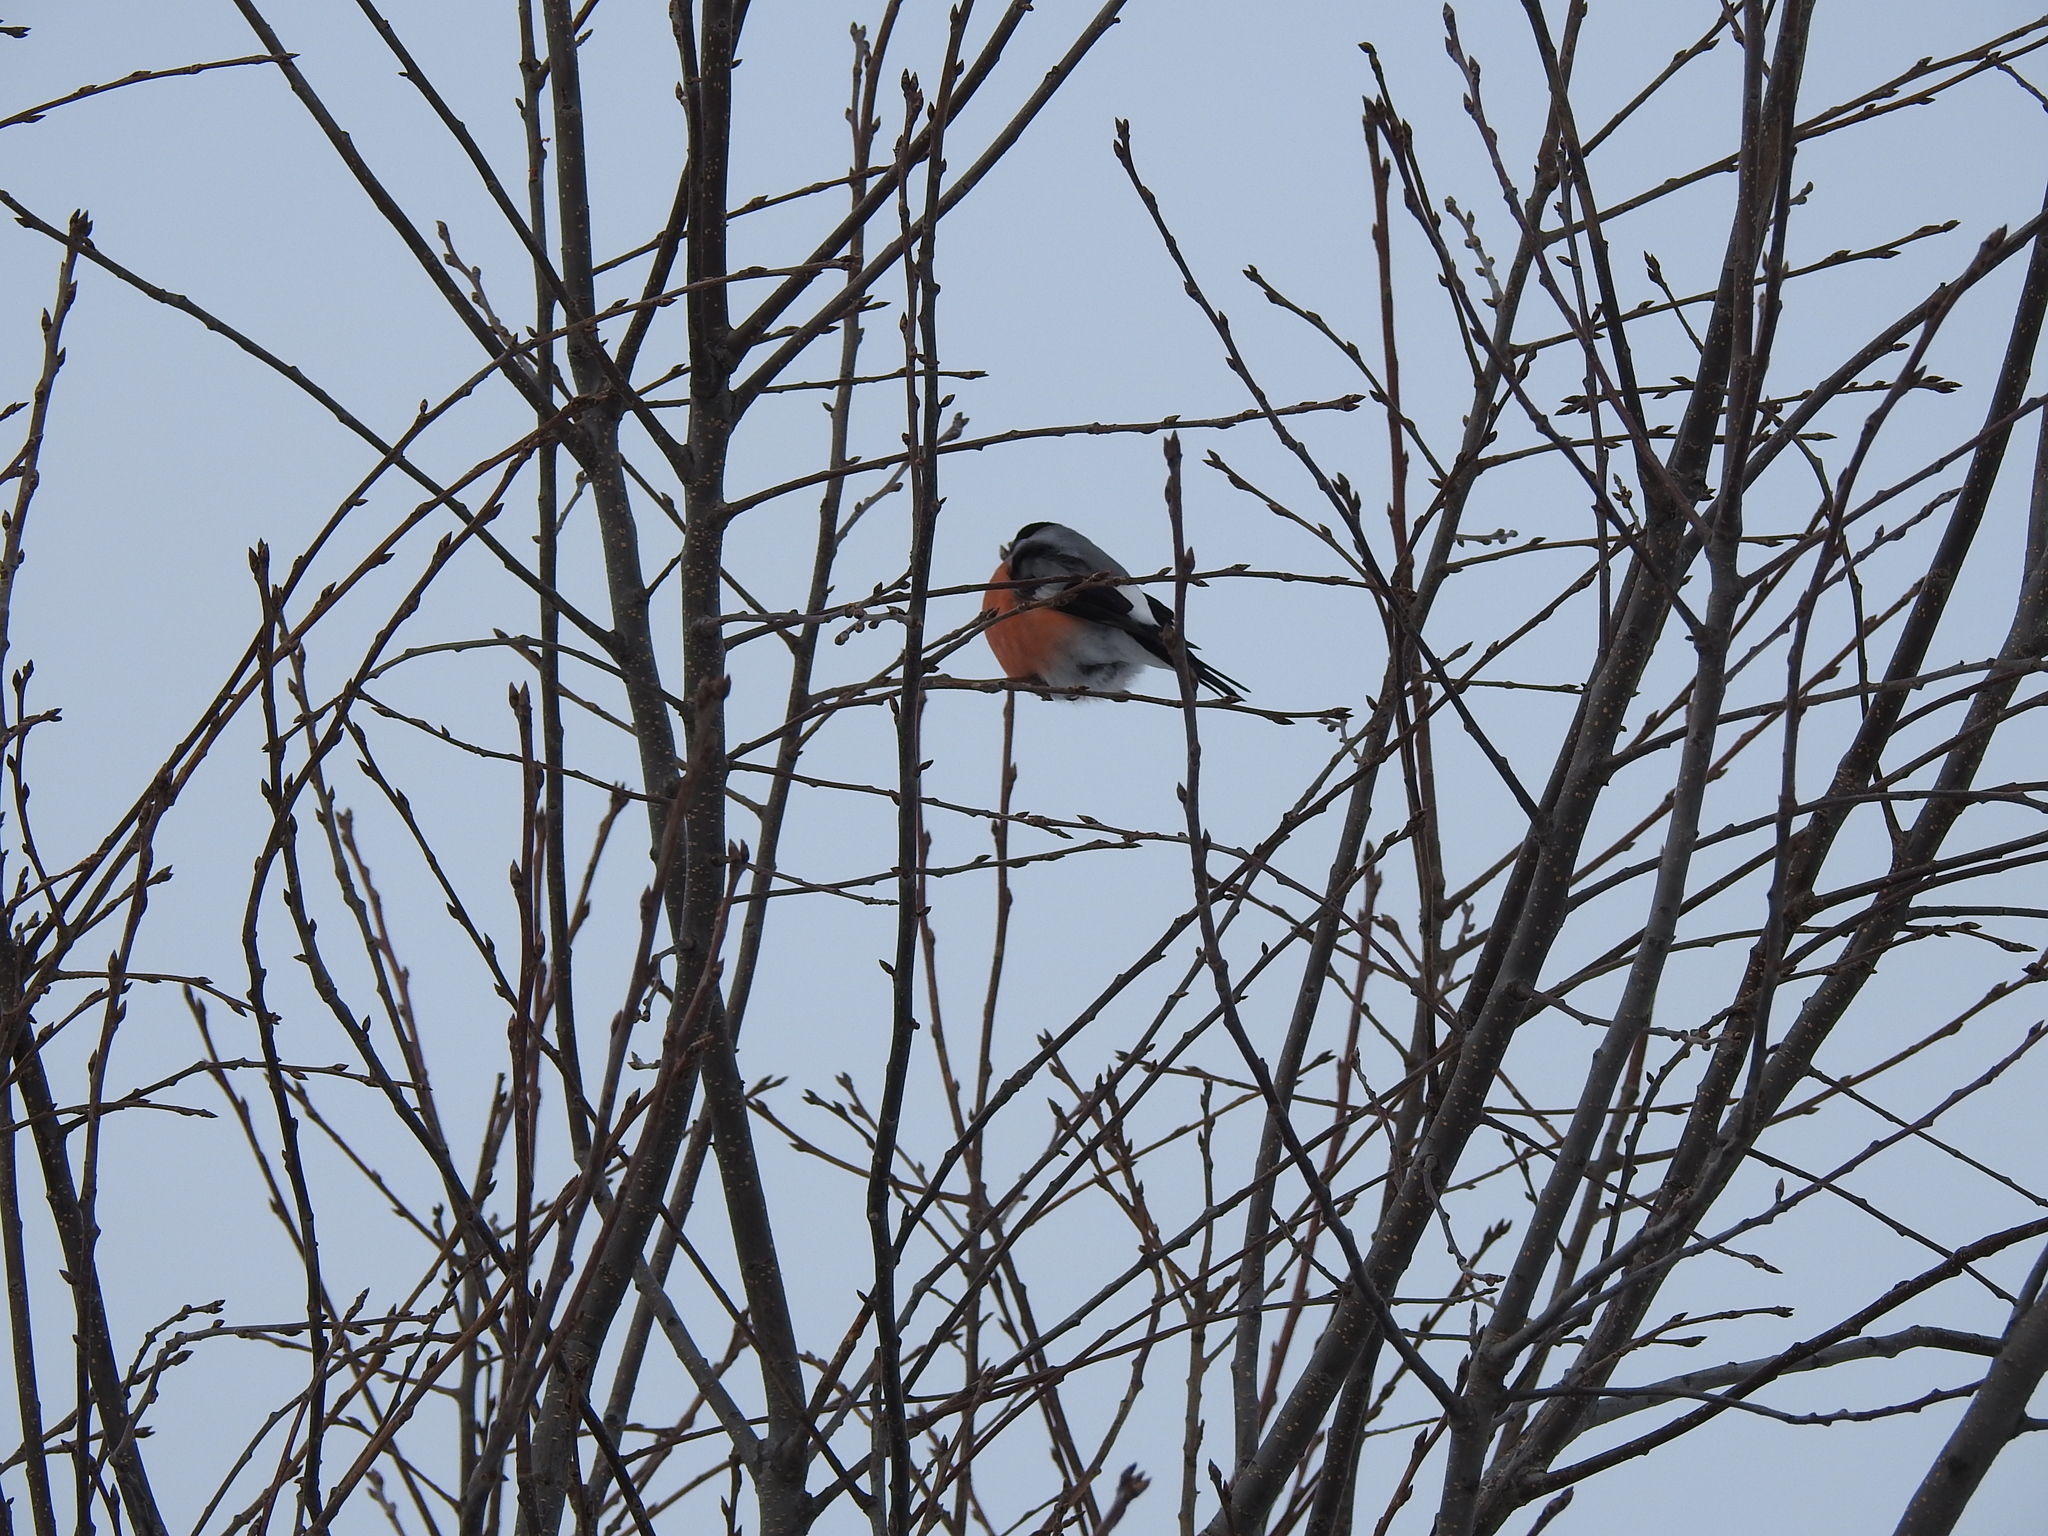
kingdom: Animalia
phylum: Chordata
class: Aves
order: Passeriformes
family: Fringillidae
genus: Pyrrhula
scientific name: Pyrrhula pyrrhula
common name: Eurasian bullfinch
